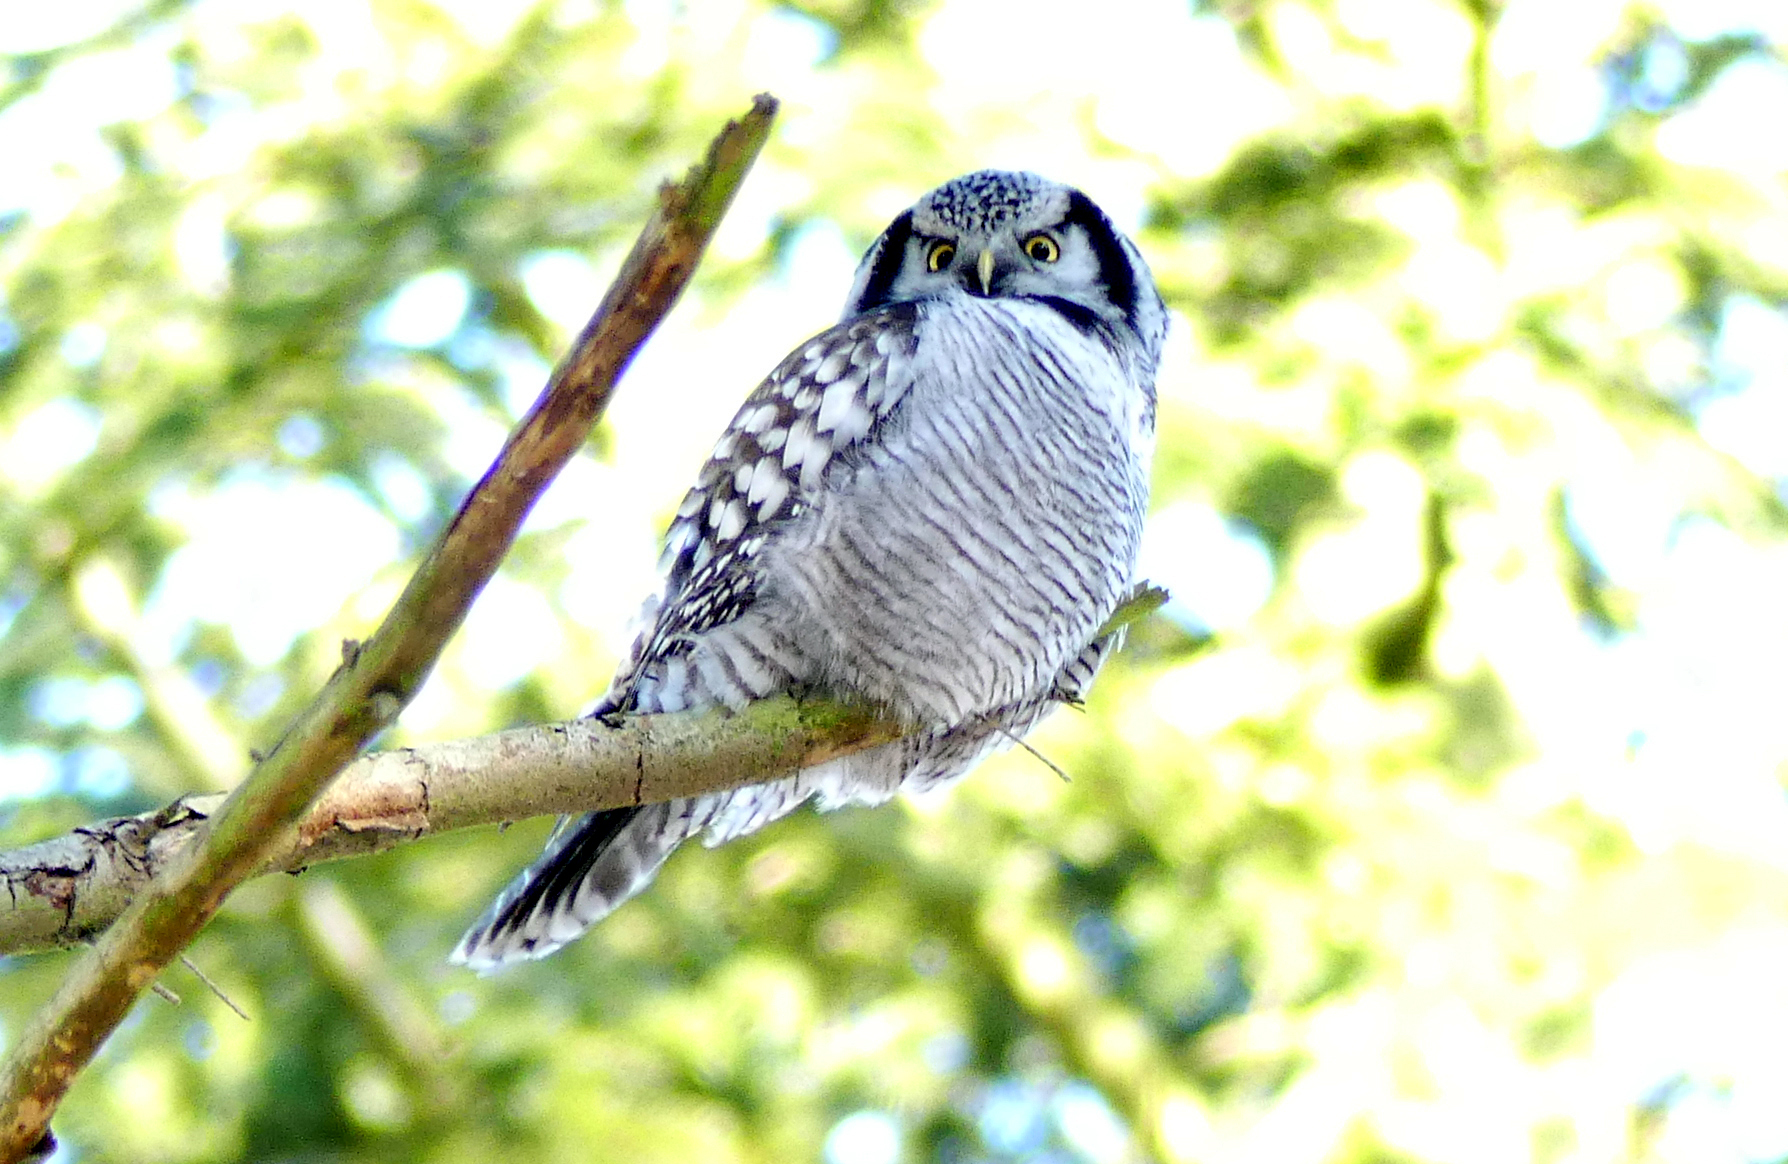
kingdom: Animalia
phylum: Chordata
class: Aves
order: Strigiformes
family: Strigidae
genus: Surnia
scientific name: Surnia ulula
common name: Northern hawk-owl
